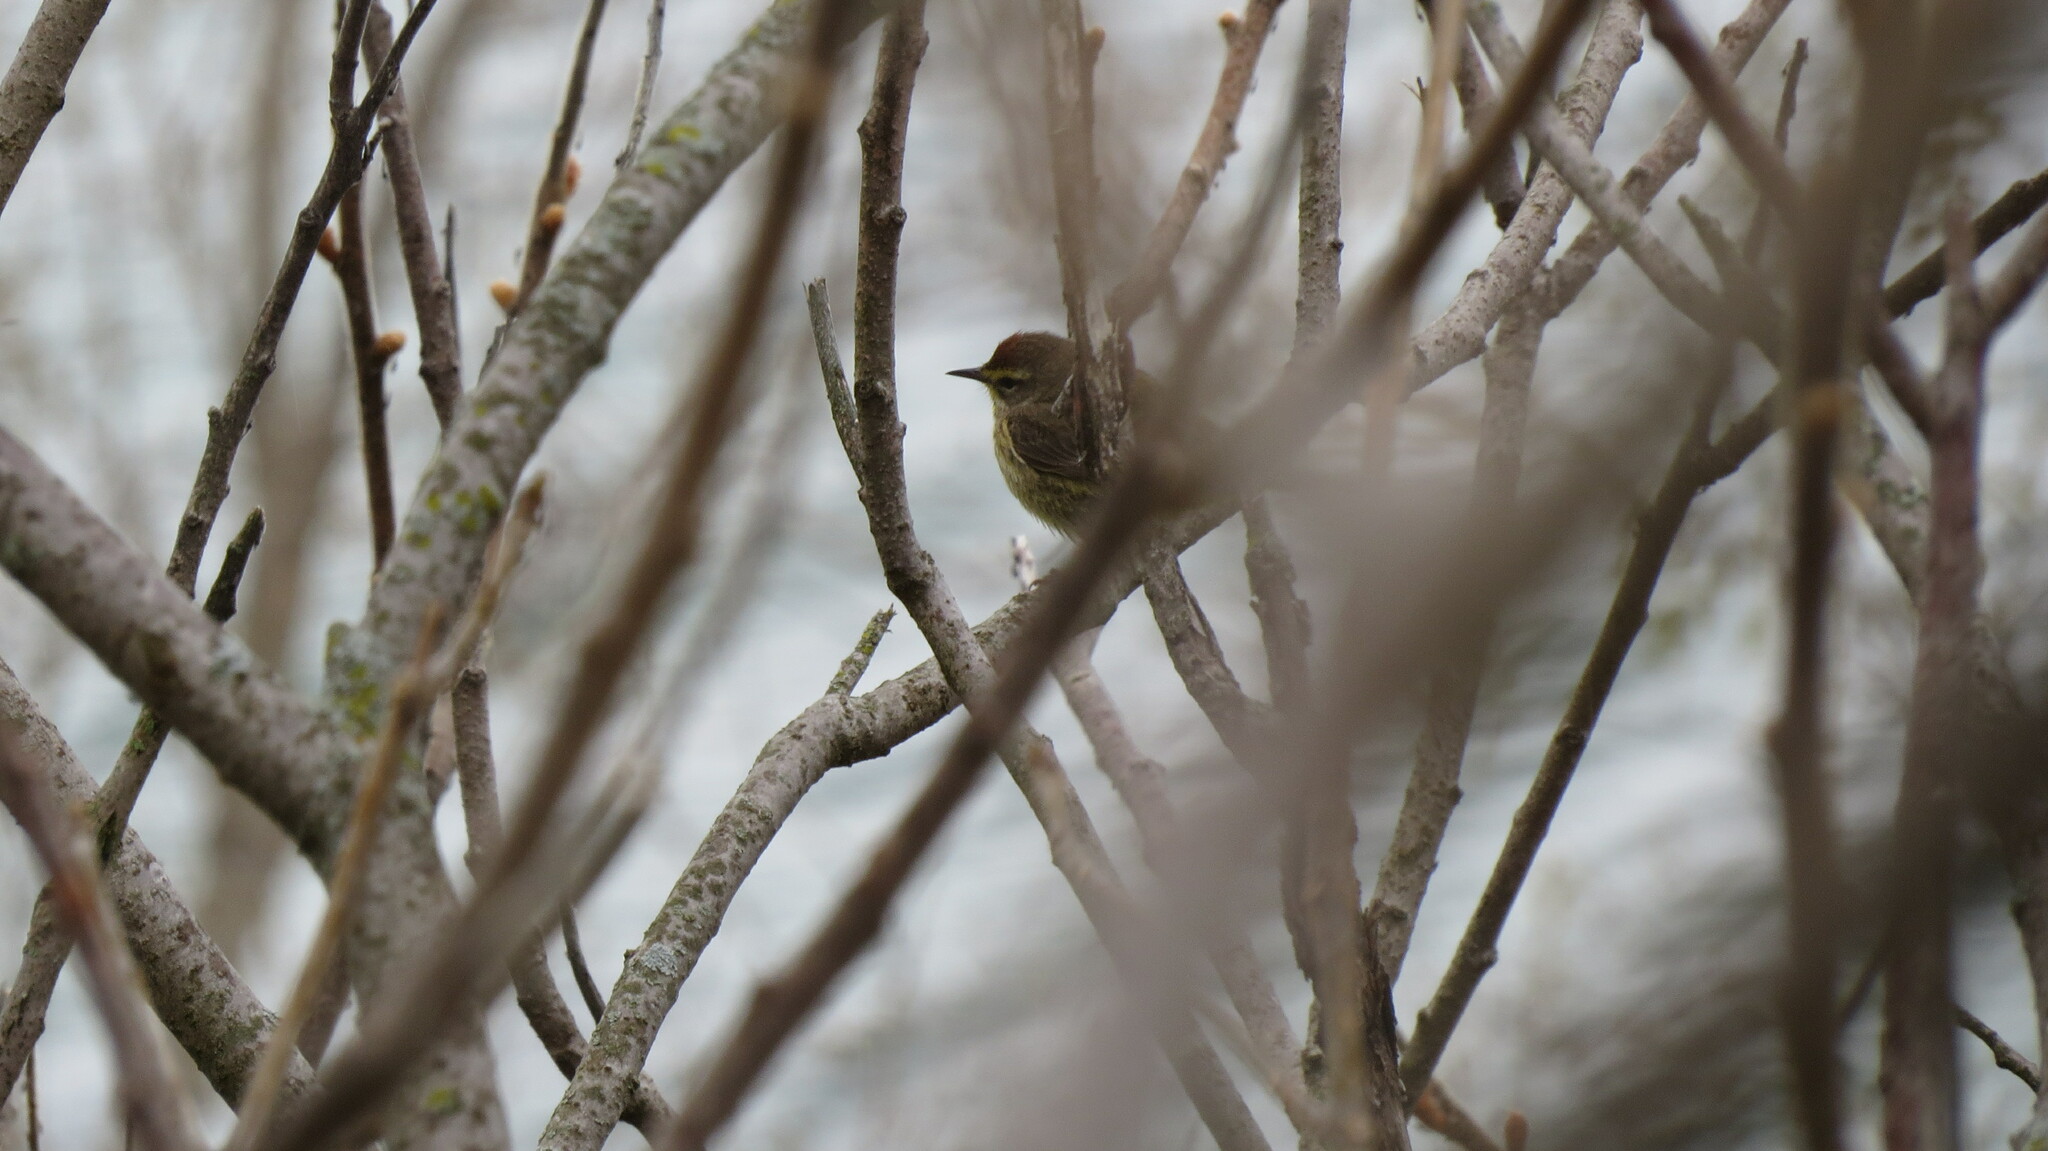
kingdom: Animalia
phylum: Chordata
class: Aves
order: Passeriformes
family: Parulidae
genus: Setophaga
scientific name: Setophaga palmarum
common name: Palm warbler
